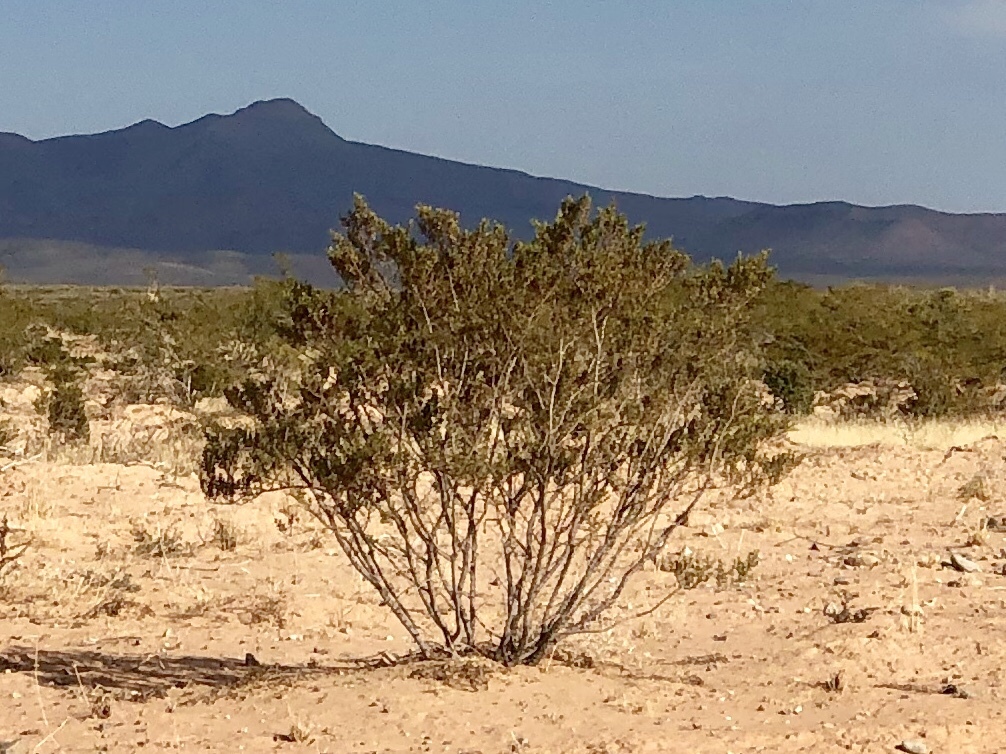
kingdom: Plantae
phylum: Tracheophyta
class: Magnoliopsida
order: Zygophyllales
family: Zygophyllaceae
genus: Larrea
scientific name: Larrea tridentata
